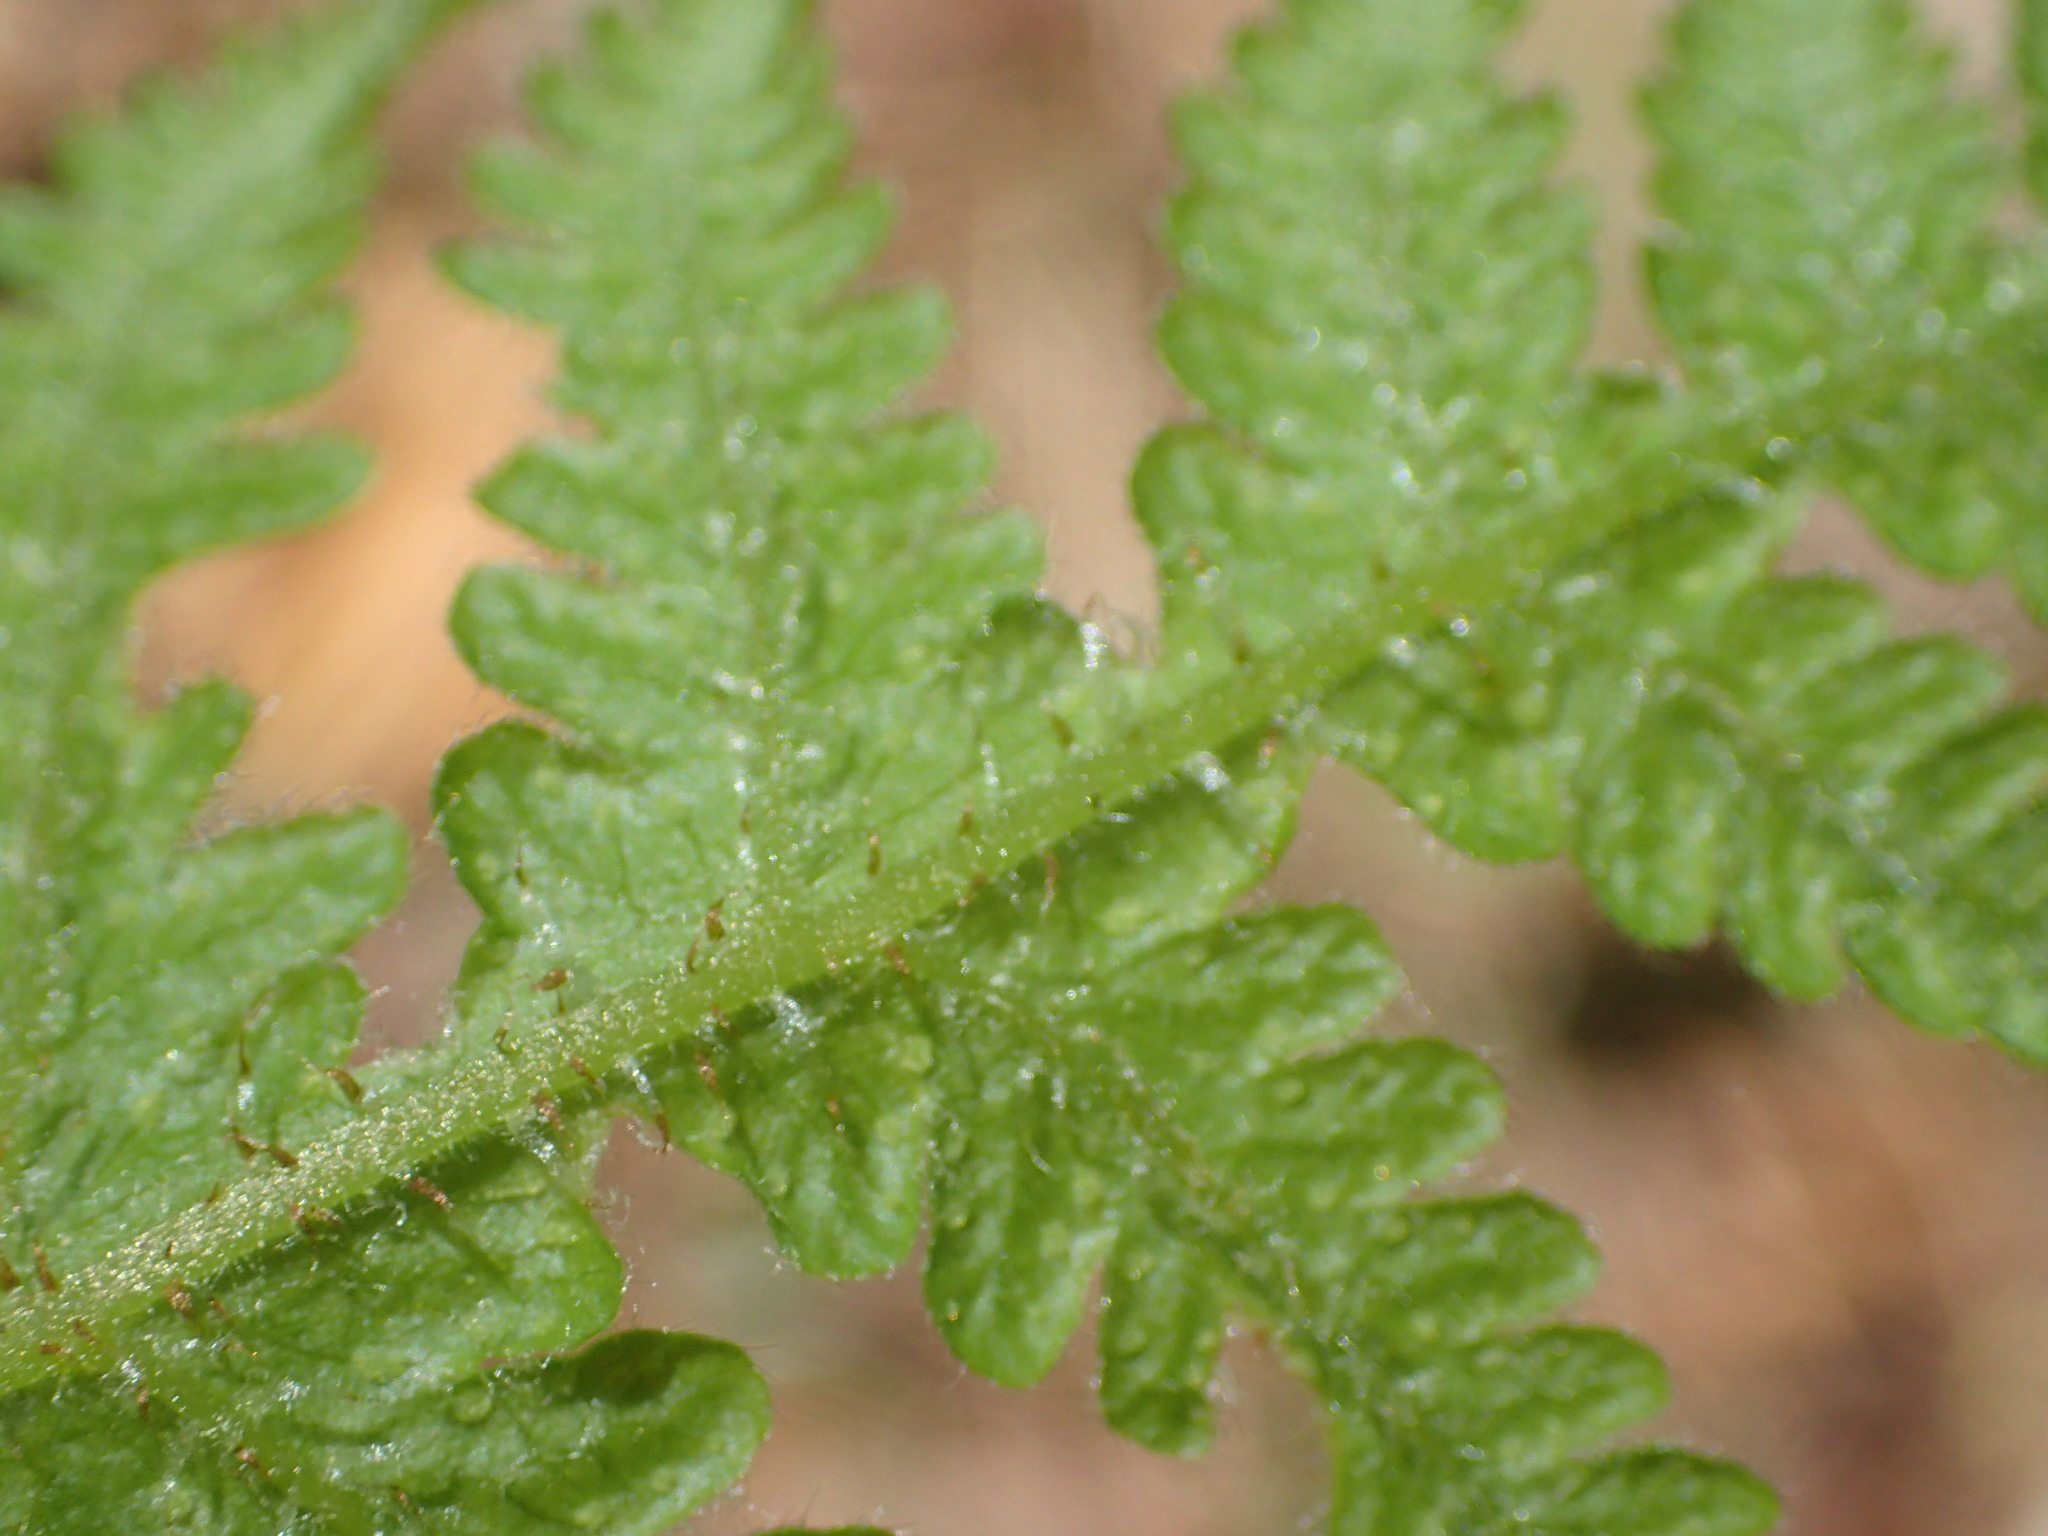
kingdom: Plantae
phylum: Tracheophyta
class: Polypodiopsida
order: Polypodiales
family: Thelypteridaceae
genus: Phegopteris
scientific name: Phegopteris connectilis
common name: Beech fern
